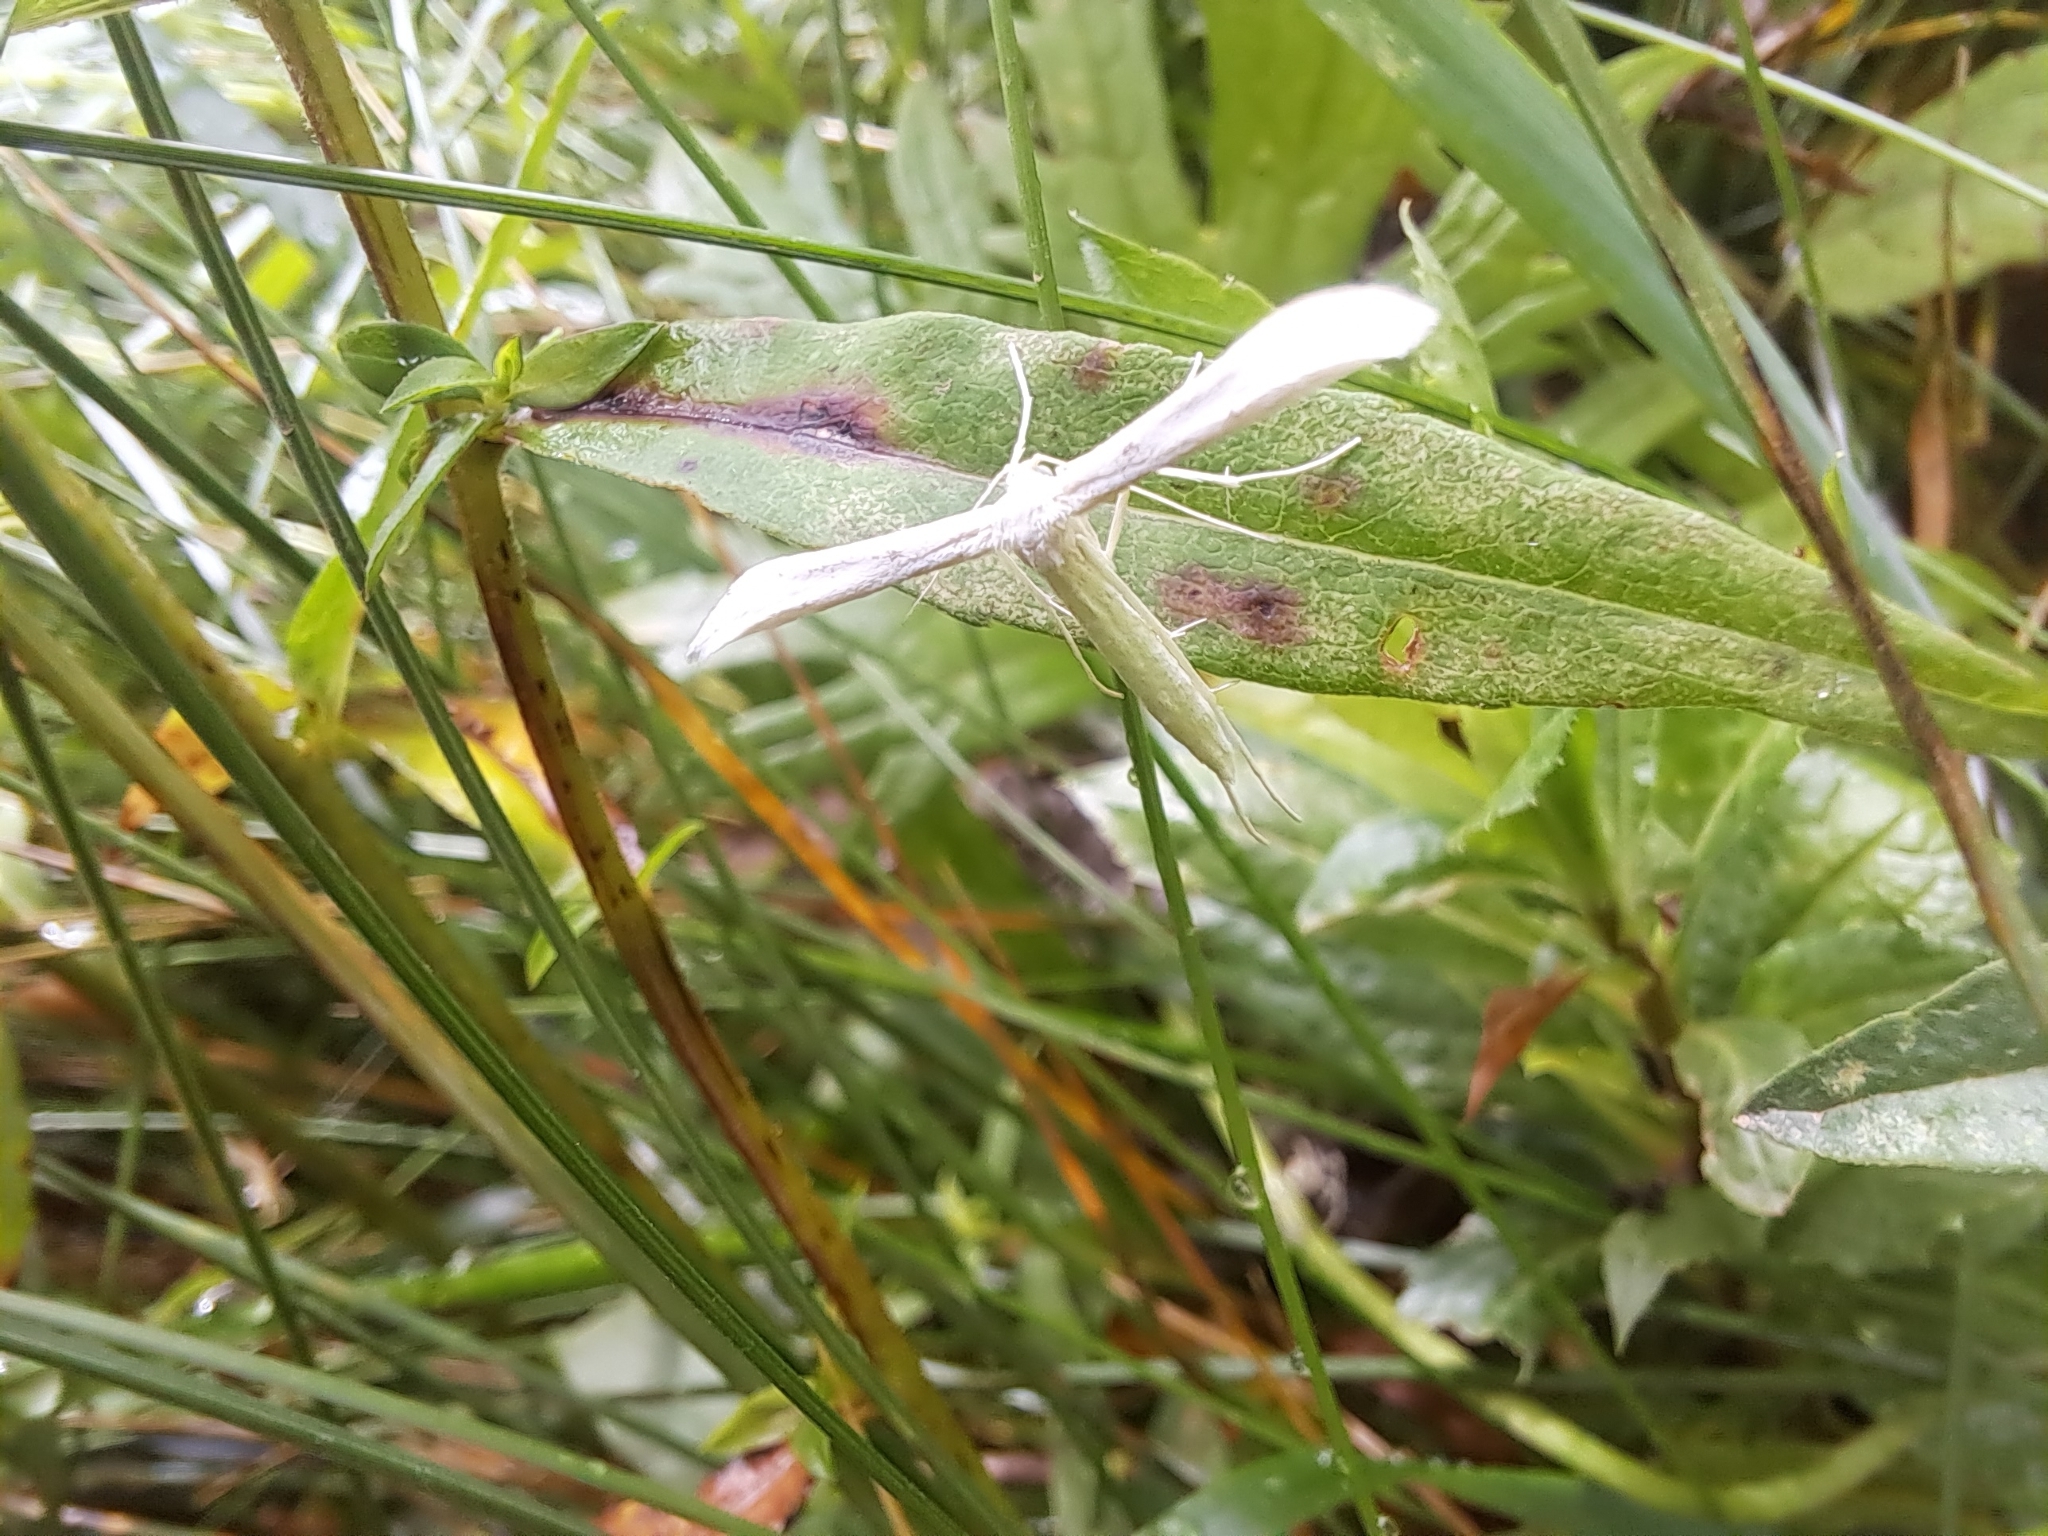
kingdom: Animalia
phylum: Arthropoda
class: Insecta
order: Lepidoptera
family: Pterophoridae
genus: Hellinsia
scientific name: Hellinsia homodactylus
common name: Plain plume moth
